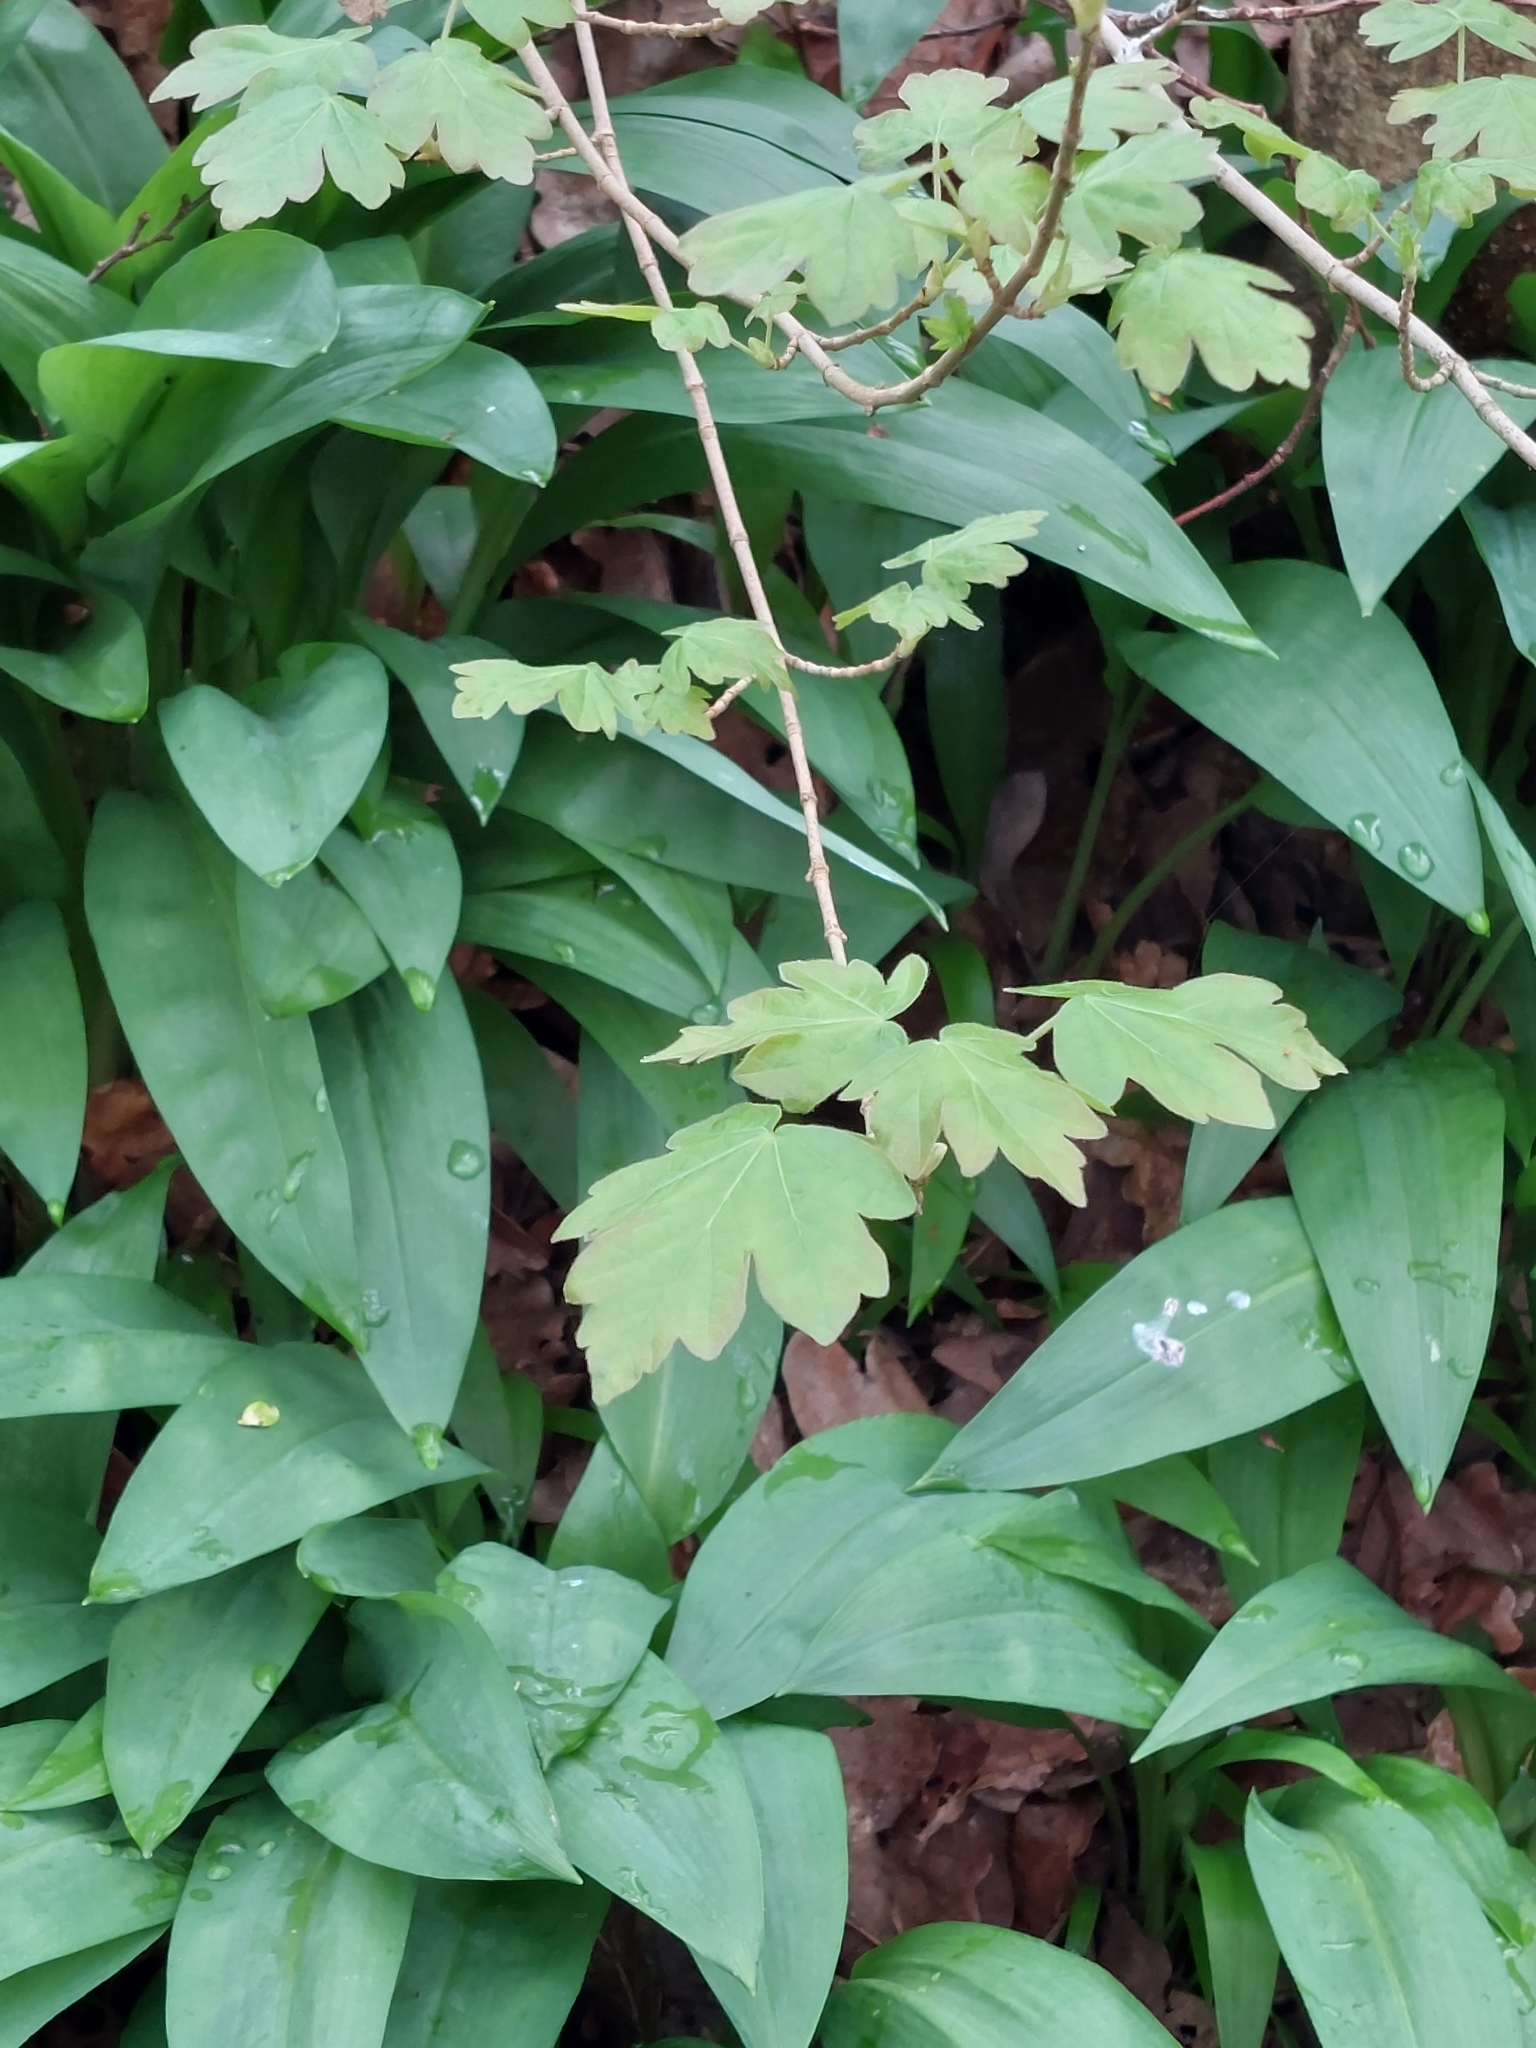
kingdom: Plantae
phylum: Tracheophyta
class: Magnoliopsida
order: Sapindales
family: Sapindaceae
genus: Acer
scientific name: Acer campestre
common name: Field maple
